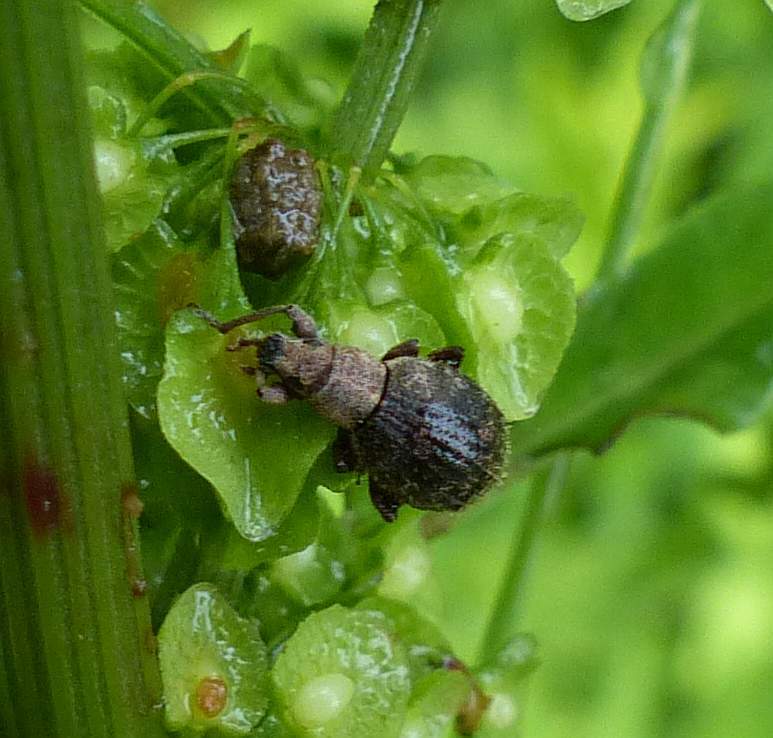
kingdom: Animalia
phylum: Arthropoda
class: Insecta
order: Coleoptera
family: Curculionidae
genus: Sciaphilus
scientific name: Sciaphilus asperatus
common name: Weevil
